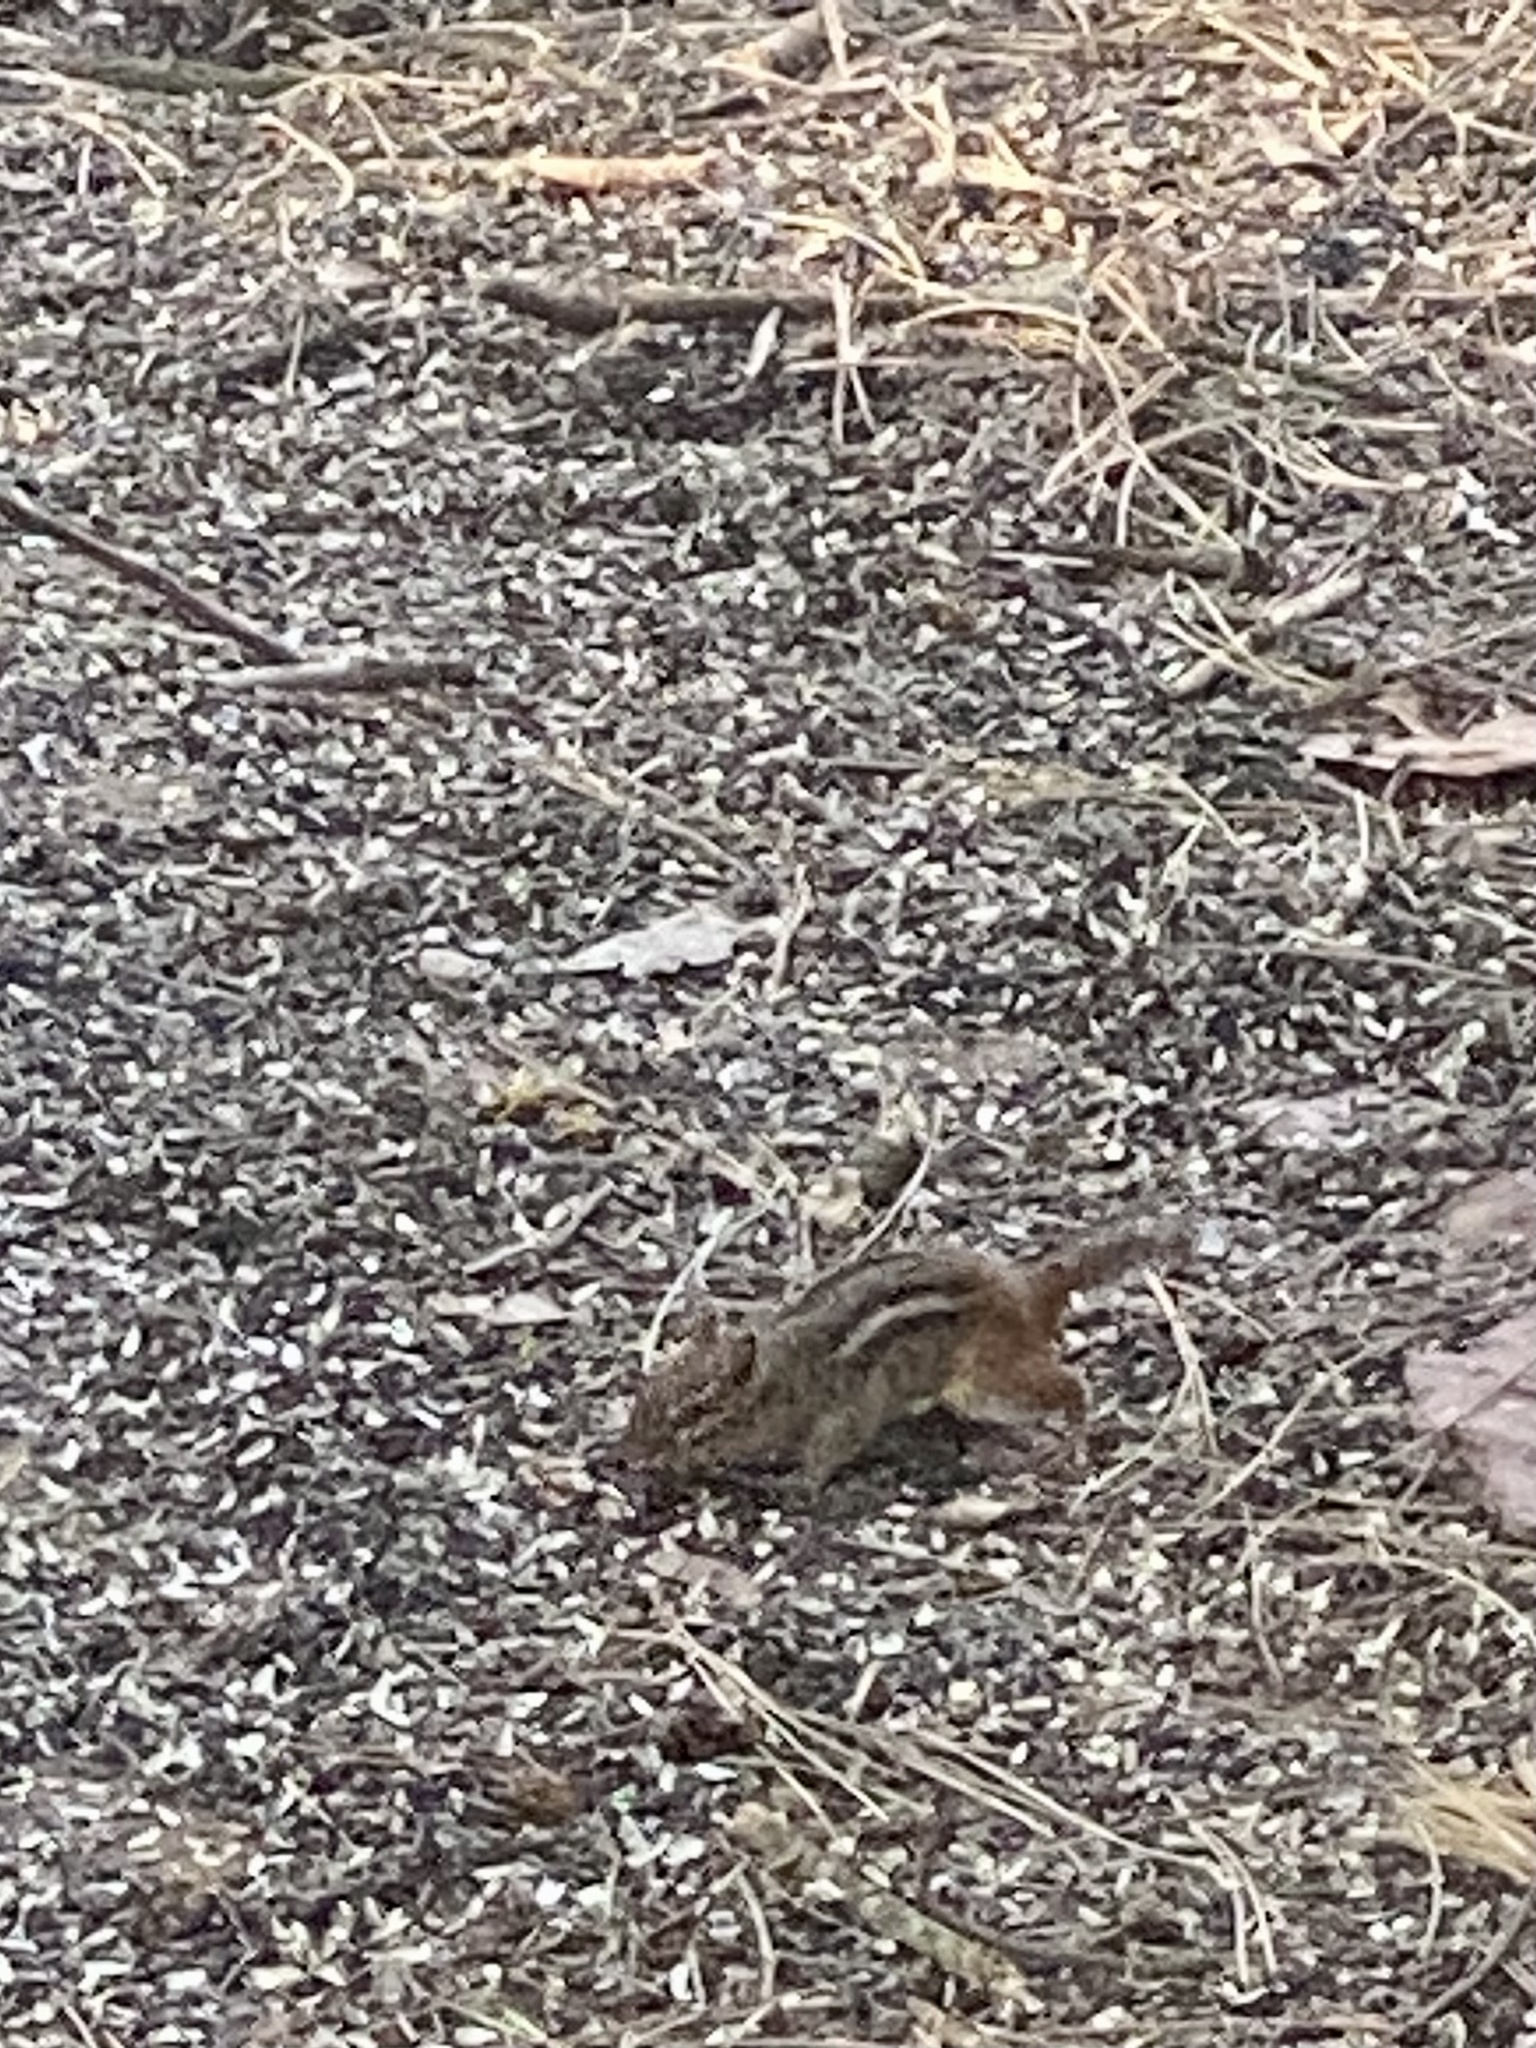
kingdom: Animalia
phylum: Chordata
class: Mammalia
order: Rodentia
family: Sciuridae
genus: Tamias
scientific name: Tamias striatus
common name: Eastern chipmunk
